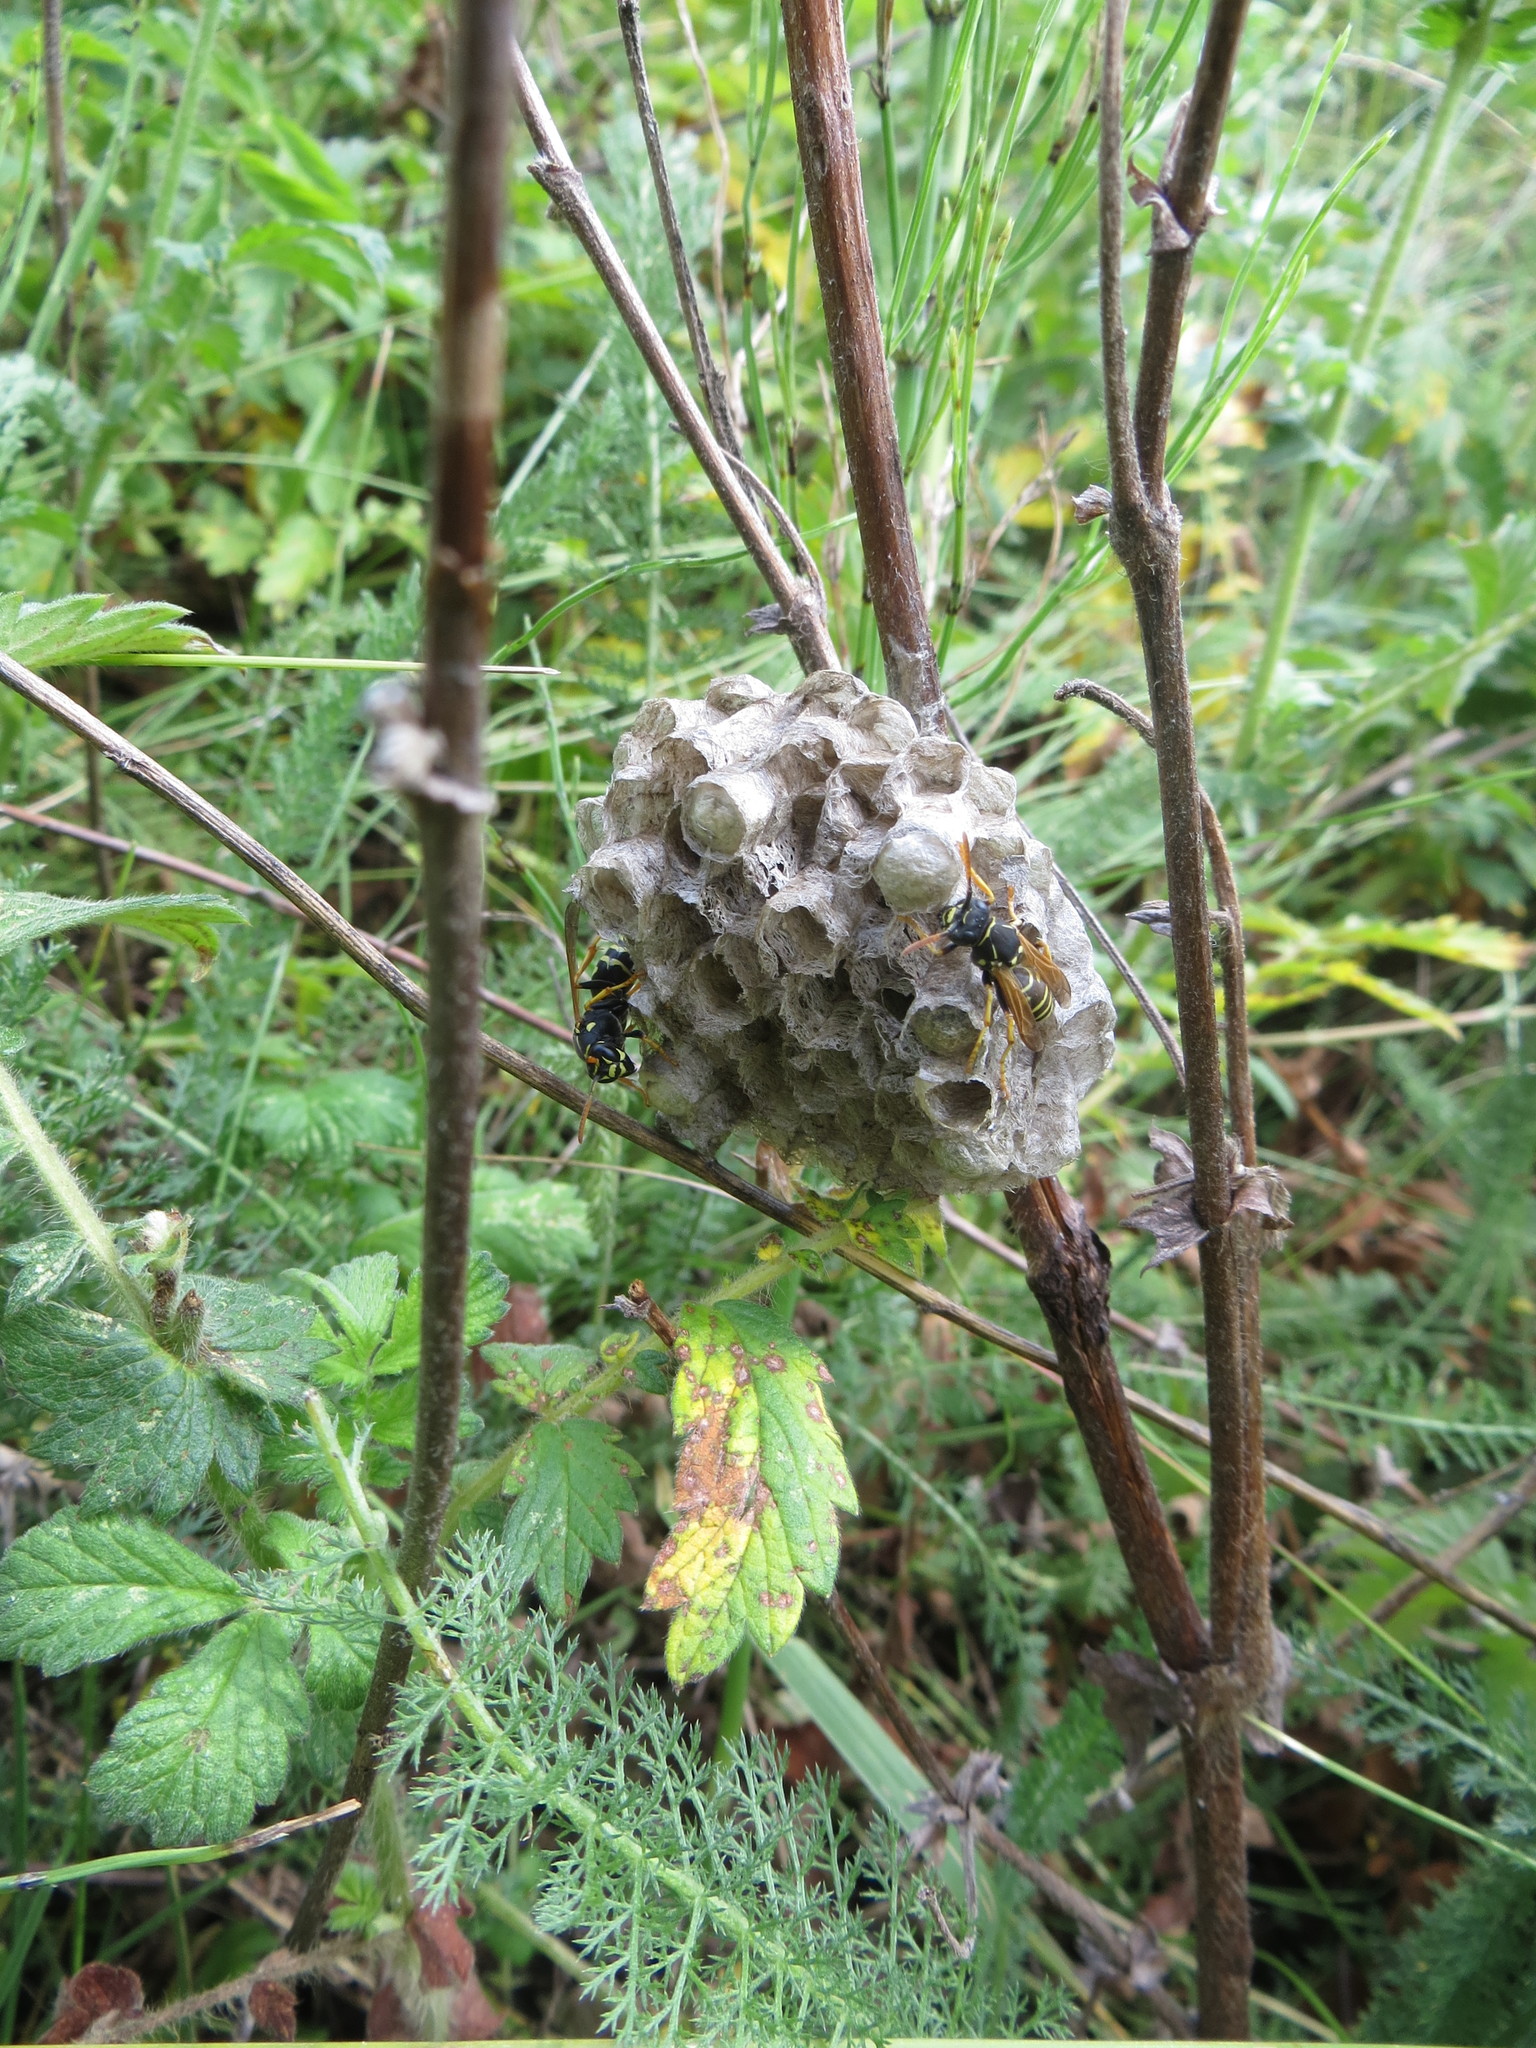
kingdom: Animalia
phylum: Arthropoda
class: Insecta
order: Hymenoptera
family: Eumenidae
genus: Polistes
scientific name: Polistes nimpha
